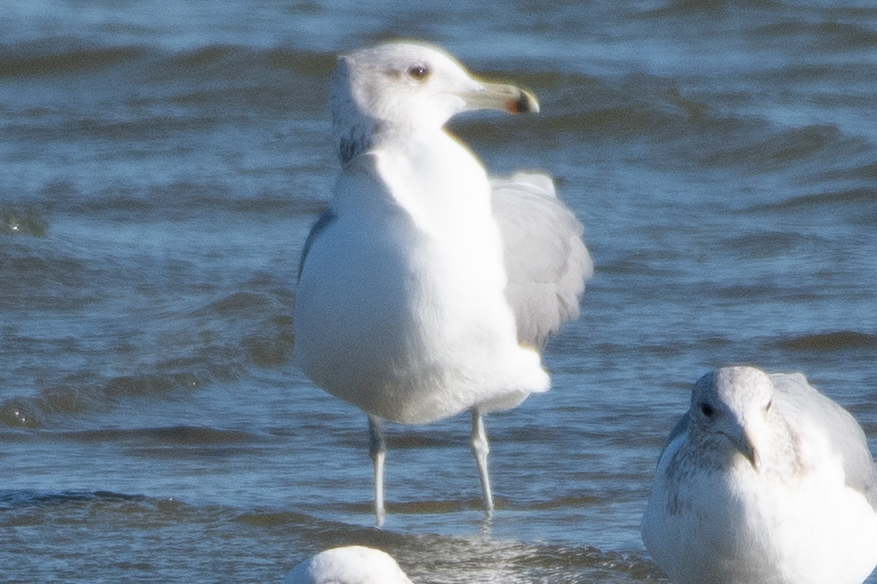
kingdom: Animalia
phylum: Chordata
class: Aves
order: Charadriiformes
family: Laridae
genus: Larus
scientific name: Larus californicus
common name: California gull
